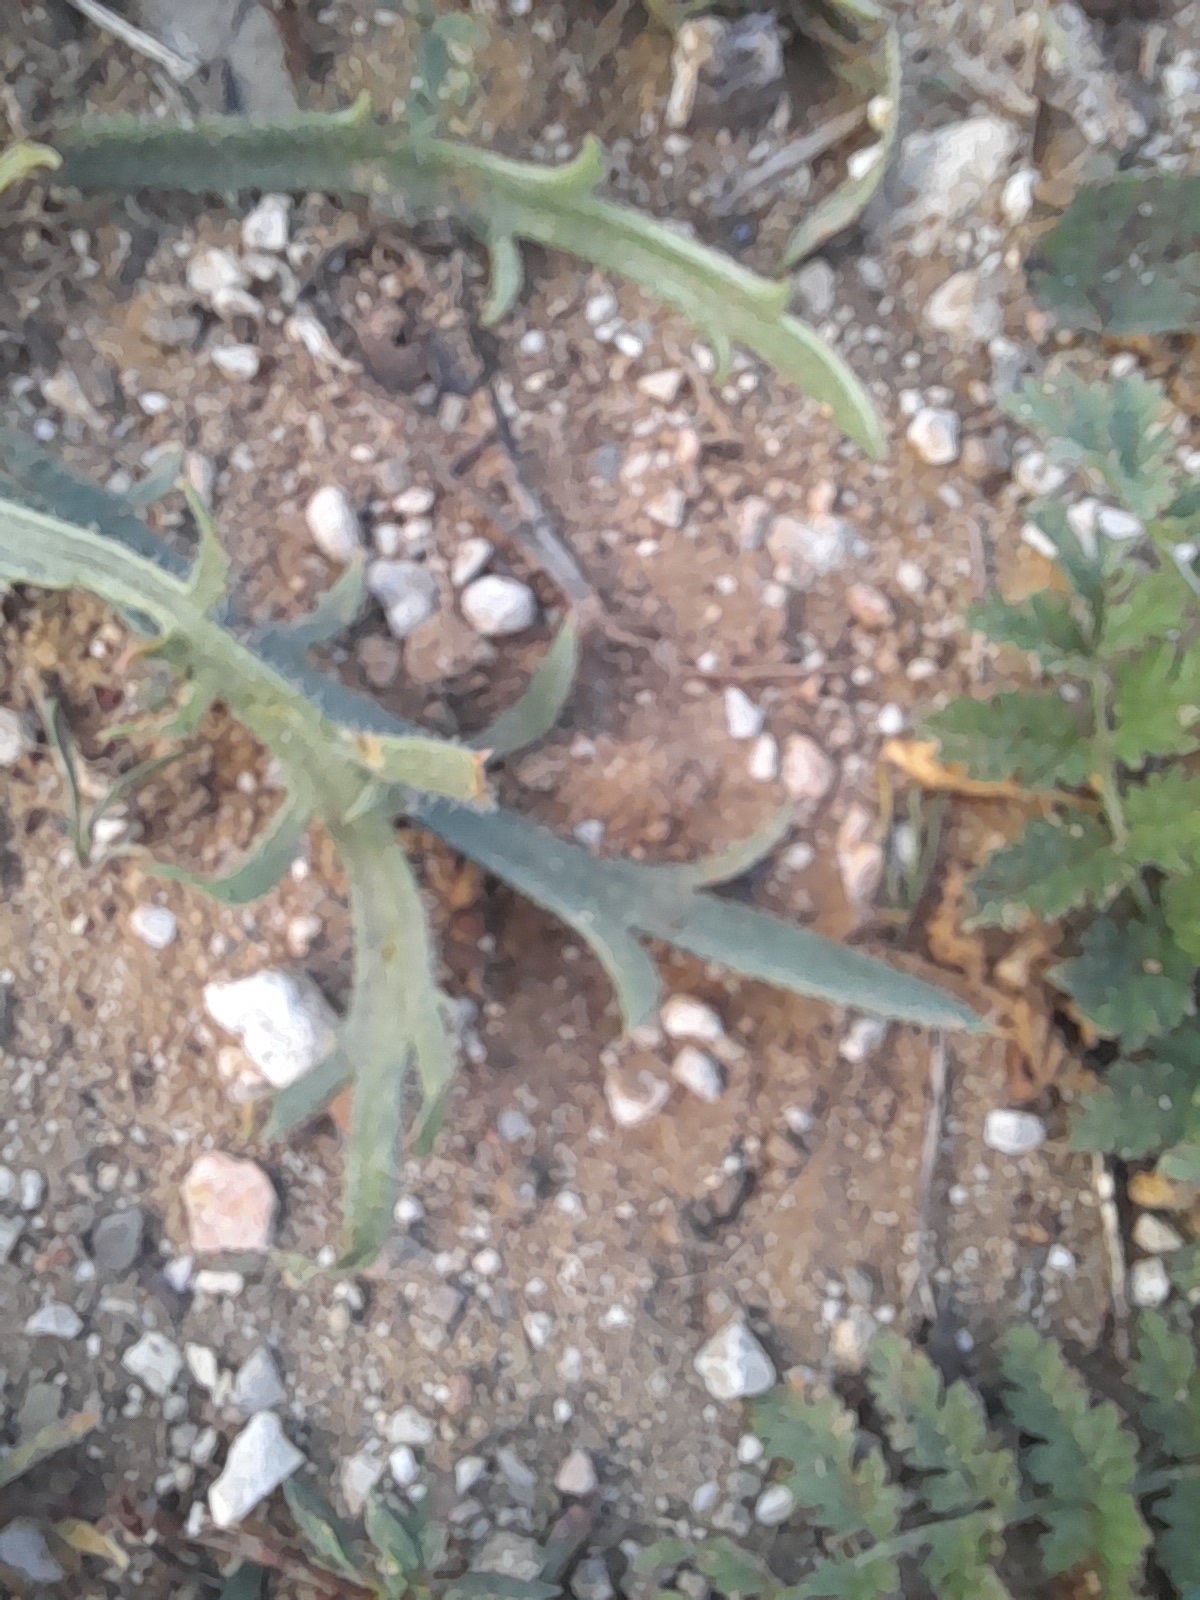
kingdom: Plantae
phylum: Tracheophyta
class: Magnoliopsida
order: Lamiales
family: Plantaginaceae
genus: Plantago
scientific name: Plantago coronopus
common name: Buck's-horn plantain
